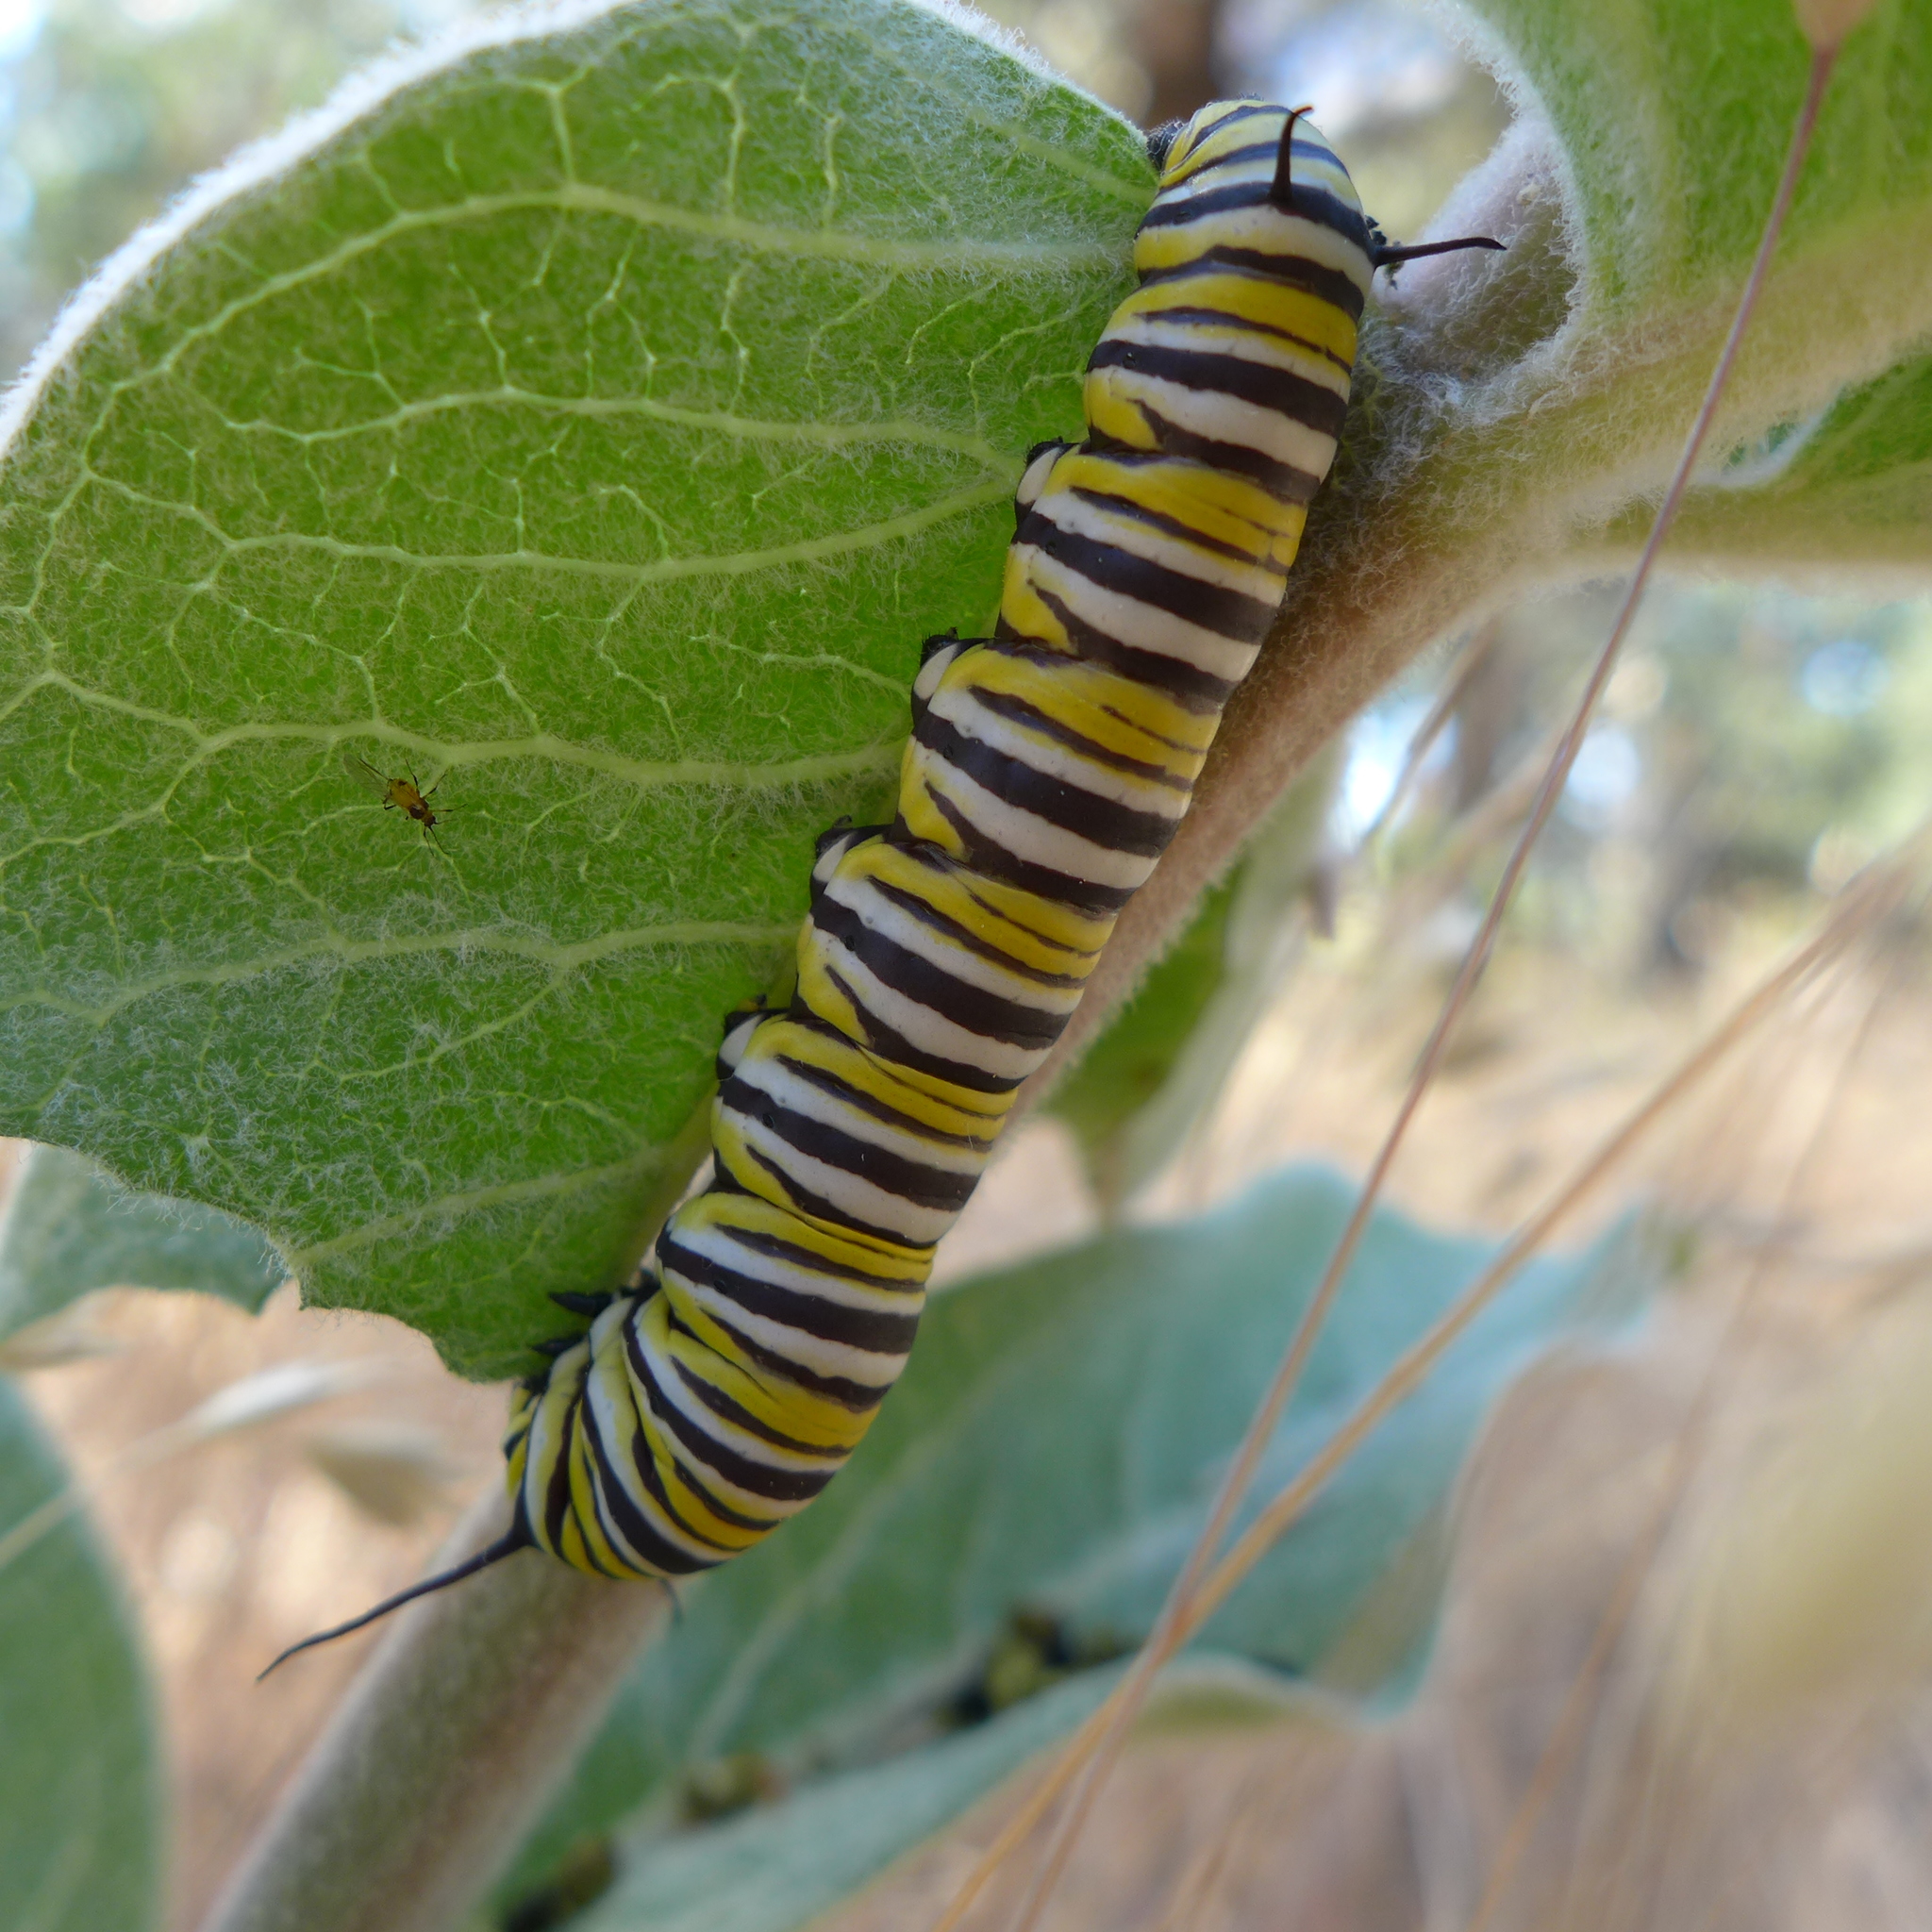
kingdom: Animalia
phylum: Arthropoda
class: Insecta
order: Lepidoptera
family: Nymphalidae
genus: Danaus
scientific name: Danaus plexippus
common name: Monarch
